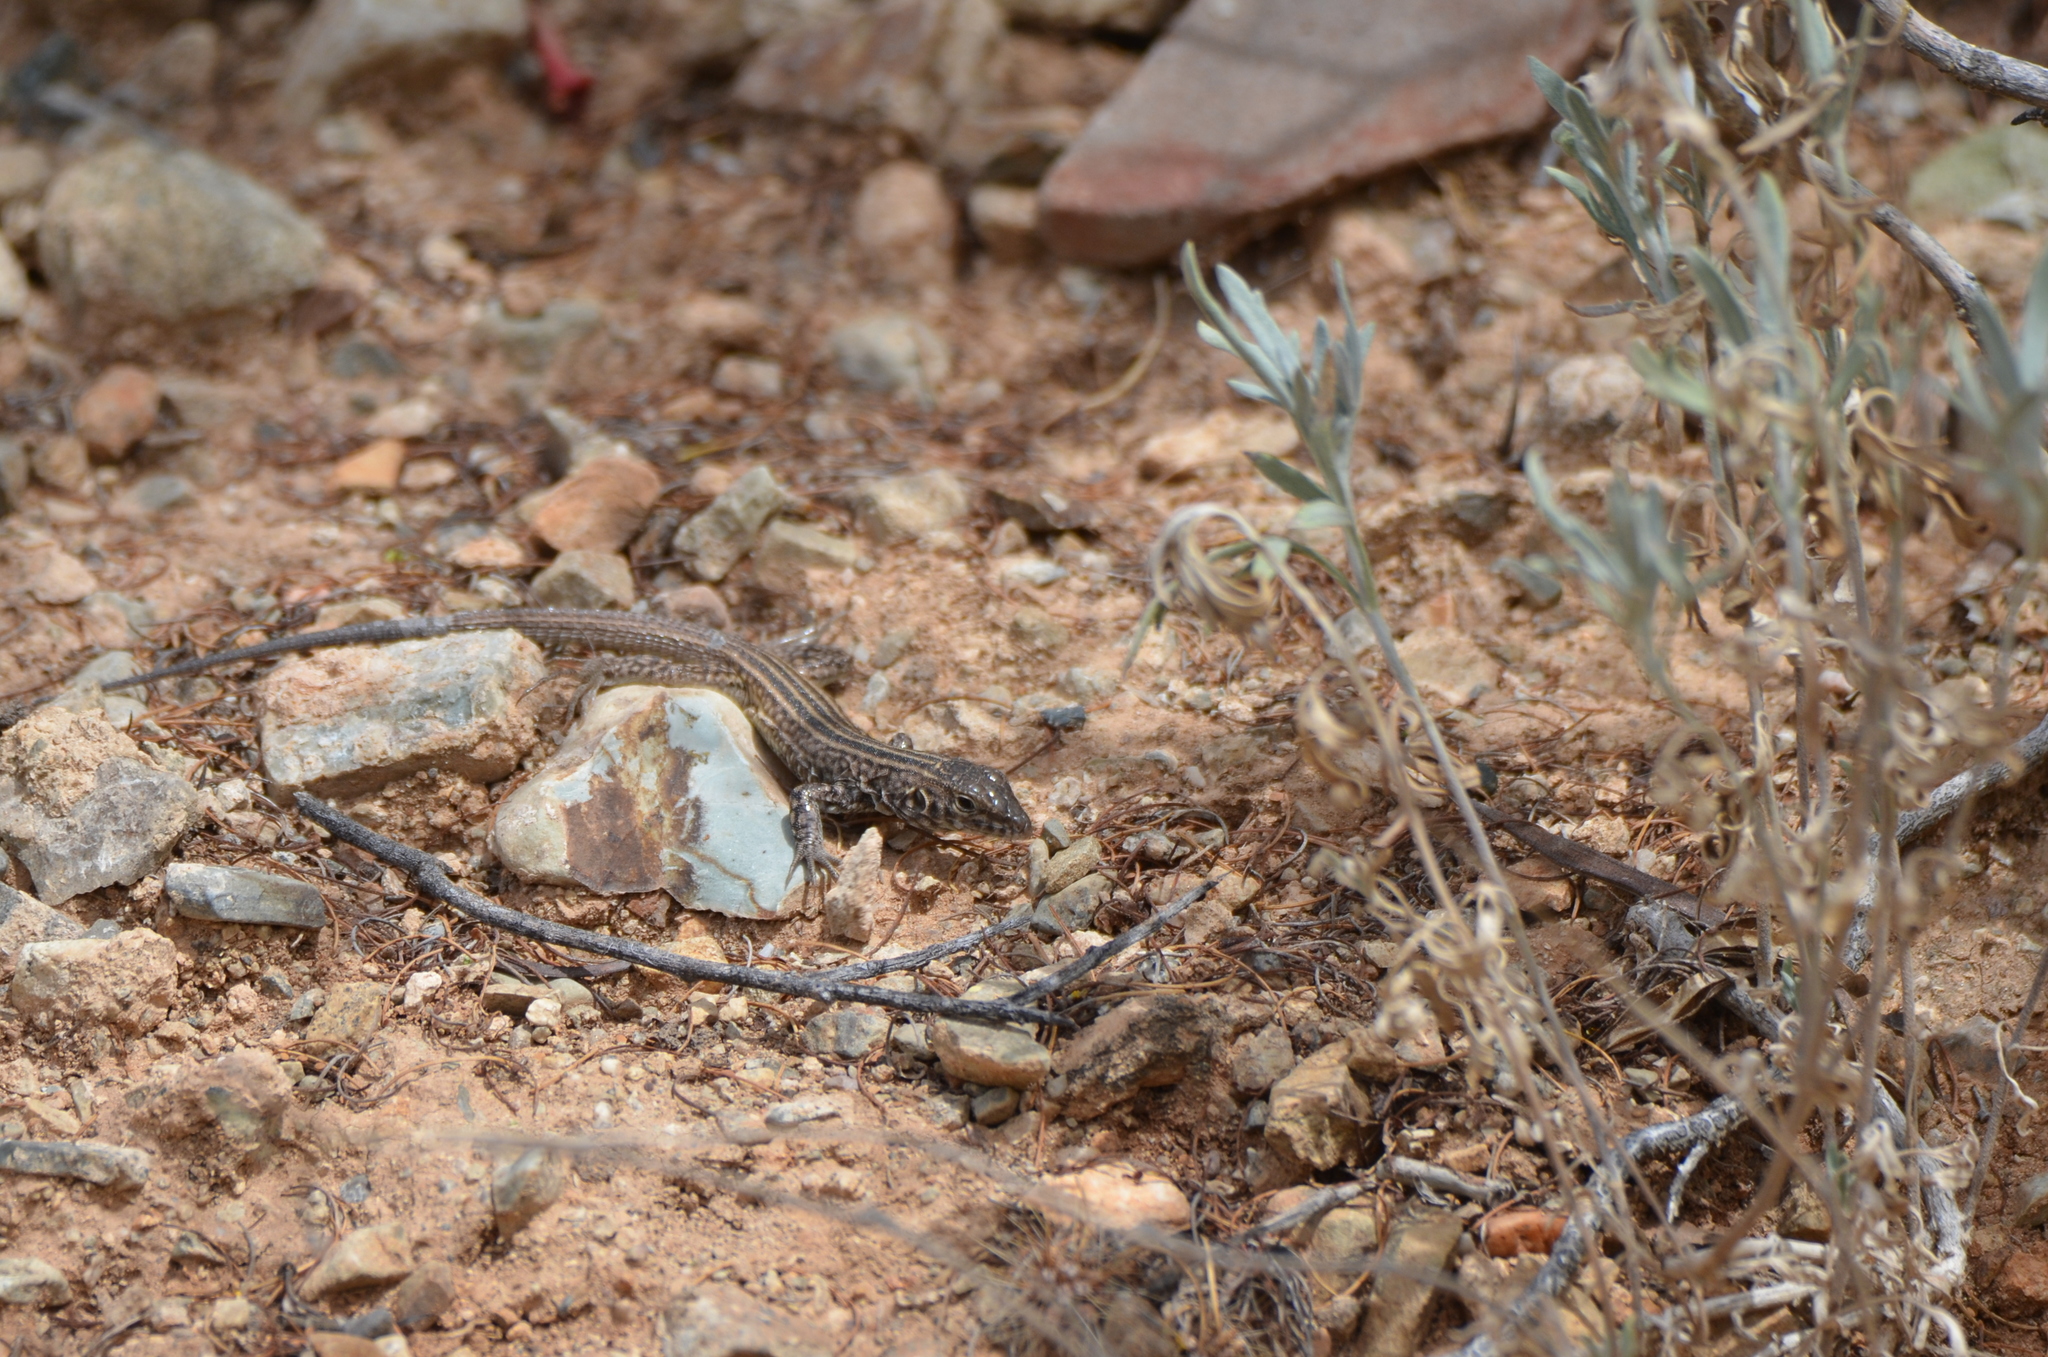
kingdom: Animalia
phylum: Chordata
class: Squamata
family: Teiidae
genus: Aspidoscelis
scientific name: Aspidoscelis tigris
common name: Tiger whiptail
